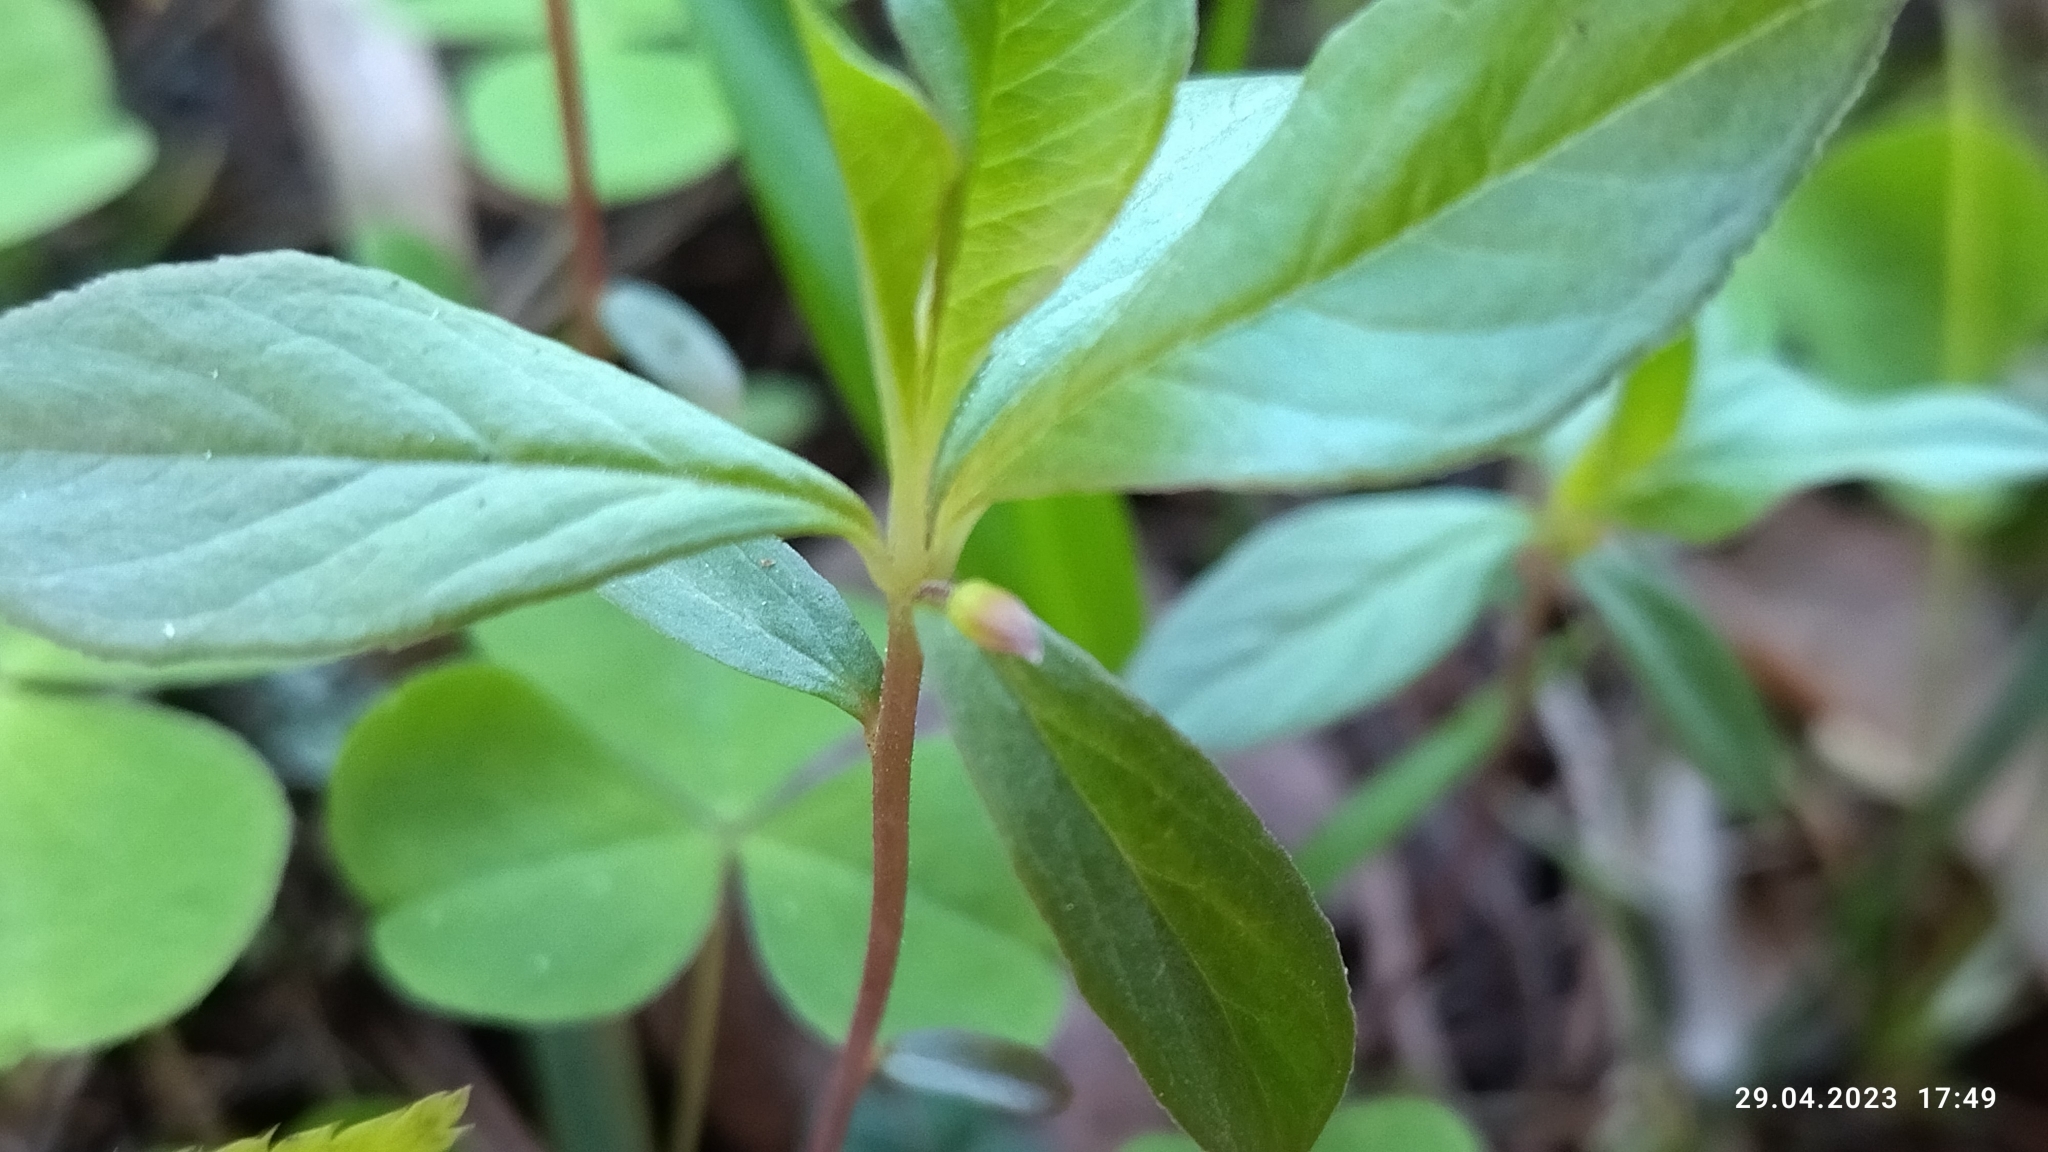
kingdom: Plantae
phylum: Tracheophyta
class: Magnoliopsida
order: Ericales
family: Primulaceae
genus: Lysimachia
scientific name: Lysimachia europaea
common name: Arctic starflower
